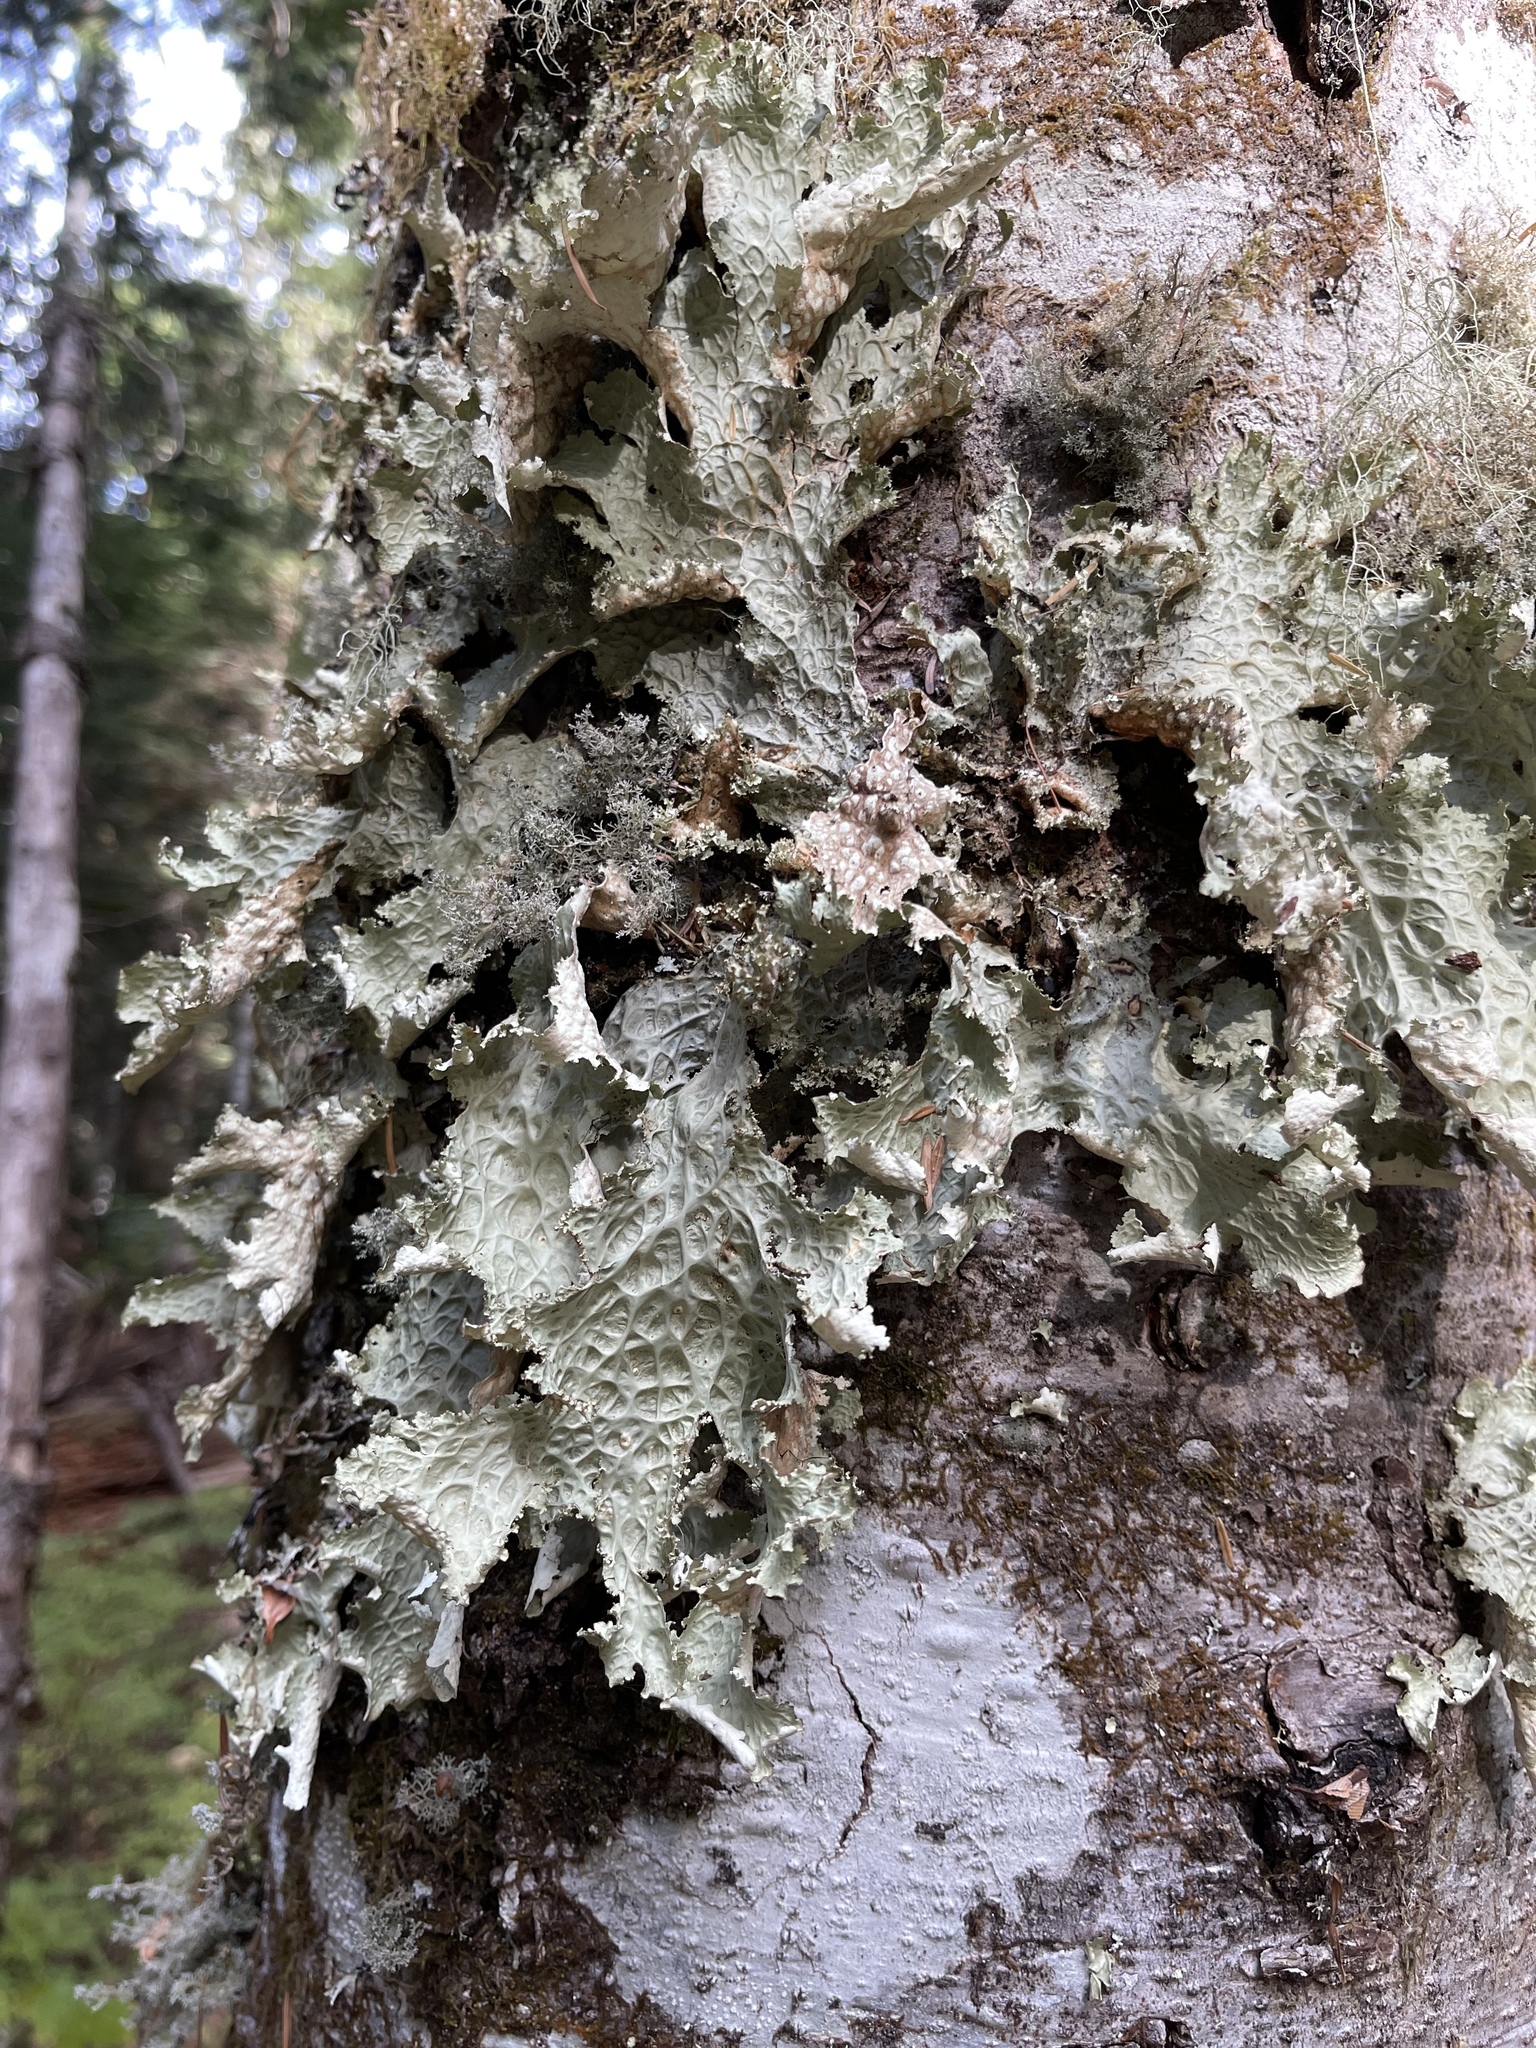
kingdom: Fungi
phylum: Ascomycota
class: Lecanoromycetes
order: Peltigerales
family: Lobariaceae
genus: Lobaria
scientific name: Lobaria oregana
